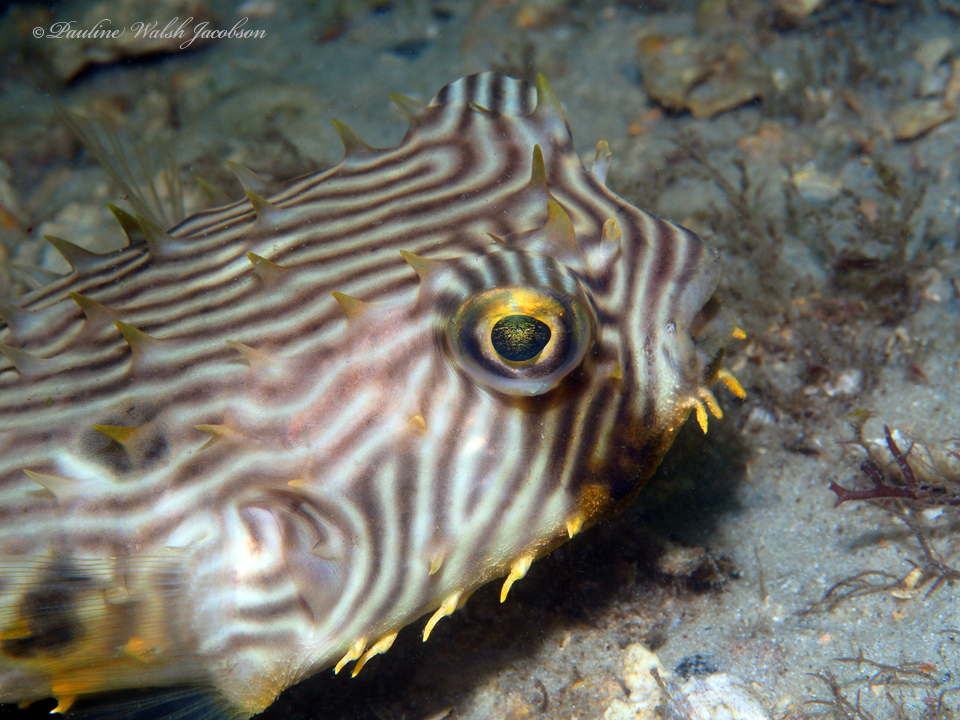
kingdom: Animalia
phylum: Chordata
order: Tetraodontiformes
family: Diodontidae
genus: Chilomycterus
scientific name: Chilomycterus schoepfii
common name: Striped burrfish
